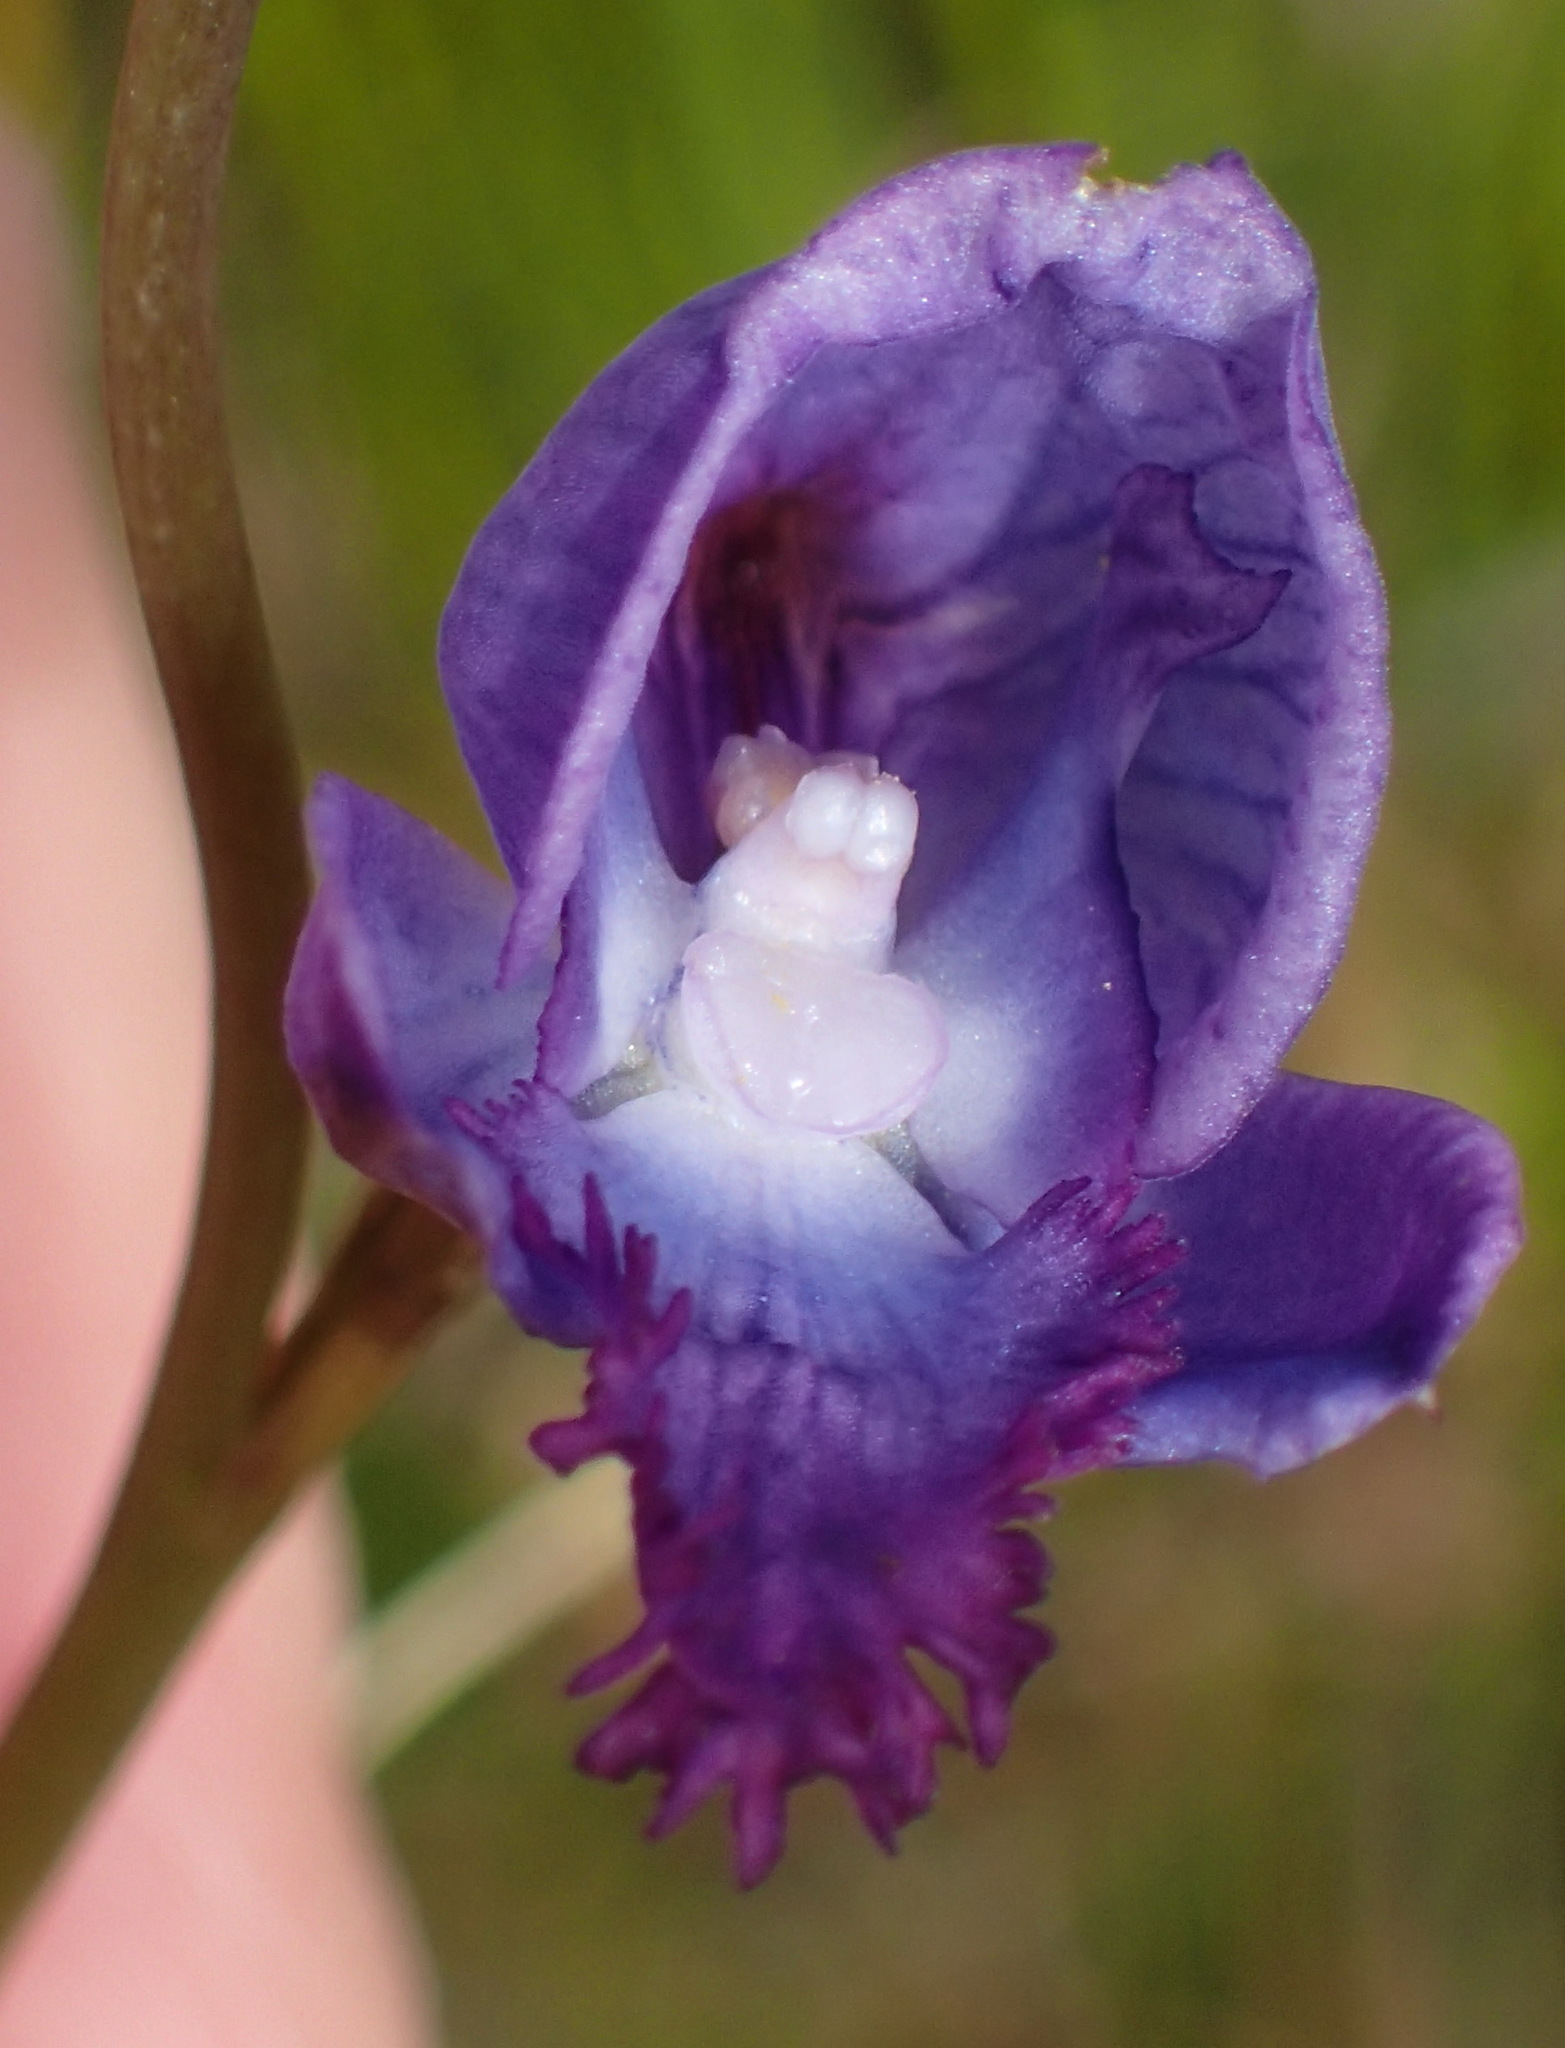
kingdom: Plantae
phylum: Tracheophyta
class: Liliopsida
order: Asparagales
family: Orchidaceae
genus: Disa
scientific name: Disa hians
